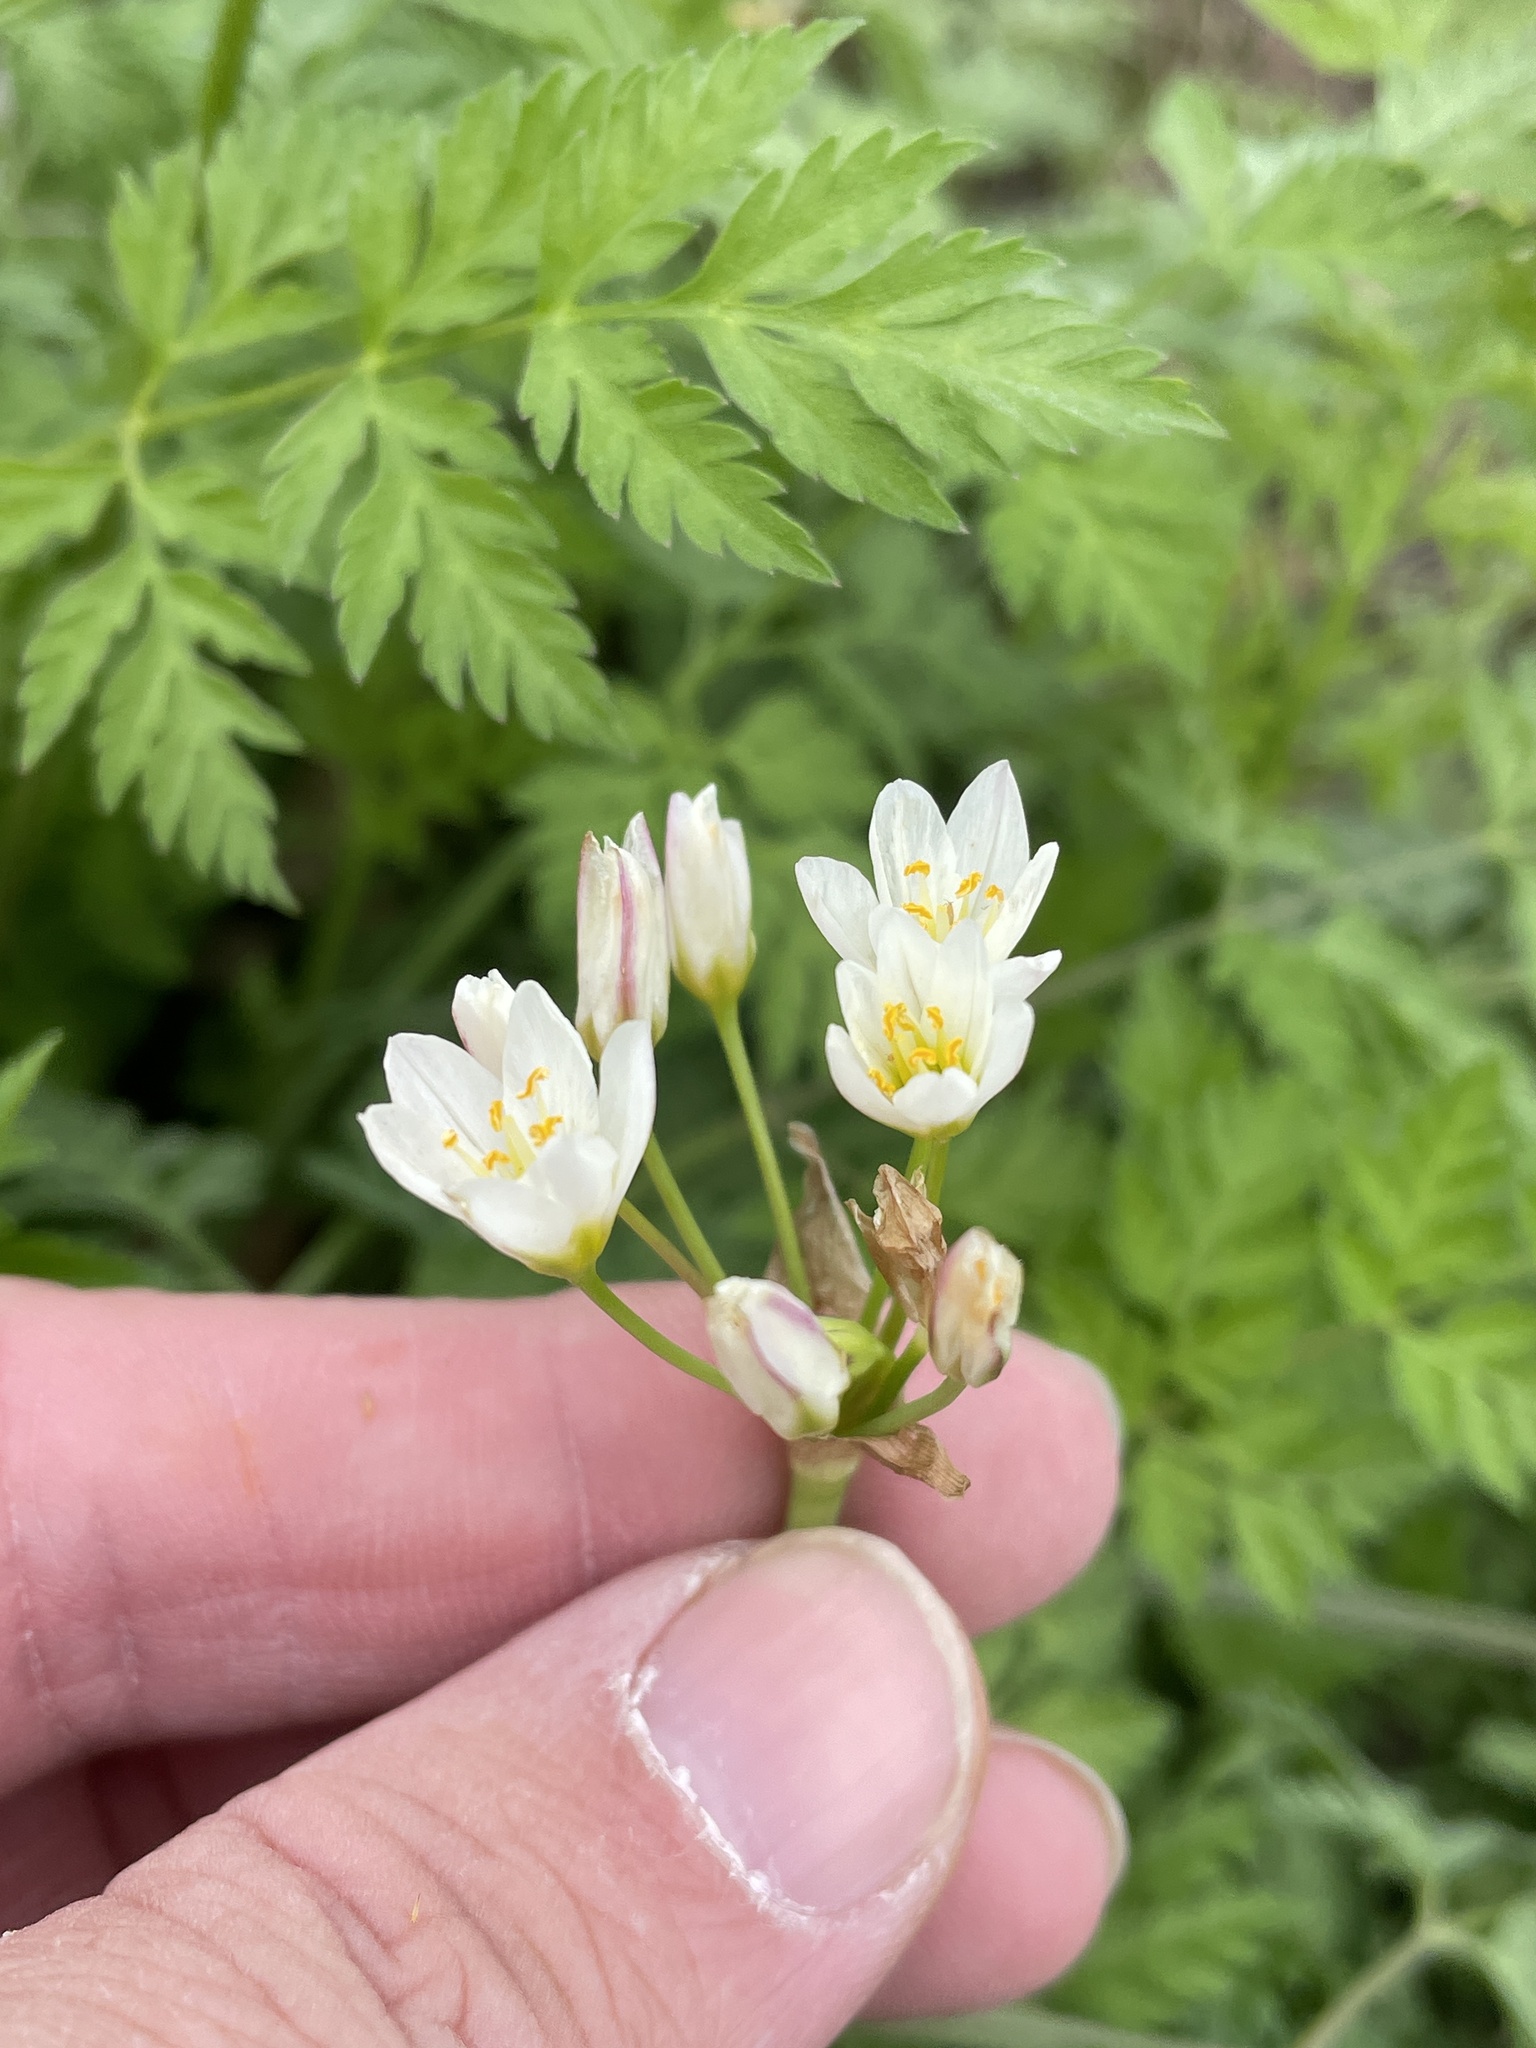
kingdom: Plantae
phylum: Tracheophyta
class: Liliopsida
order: Asparagales
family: Amaryllidaceae
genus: Nothoscordum
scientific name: Nothoscordum bivalve
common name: Crow-poison
